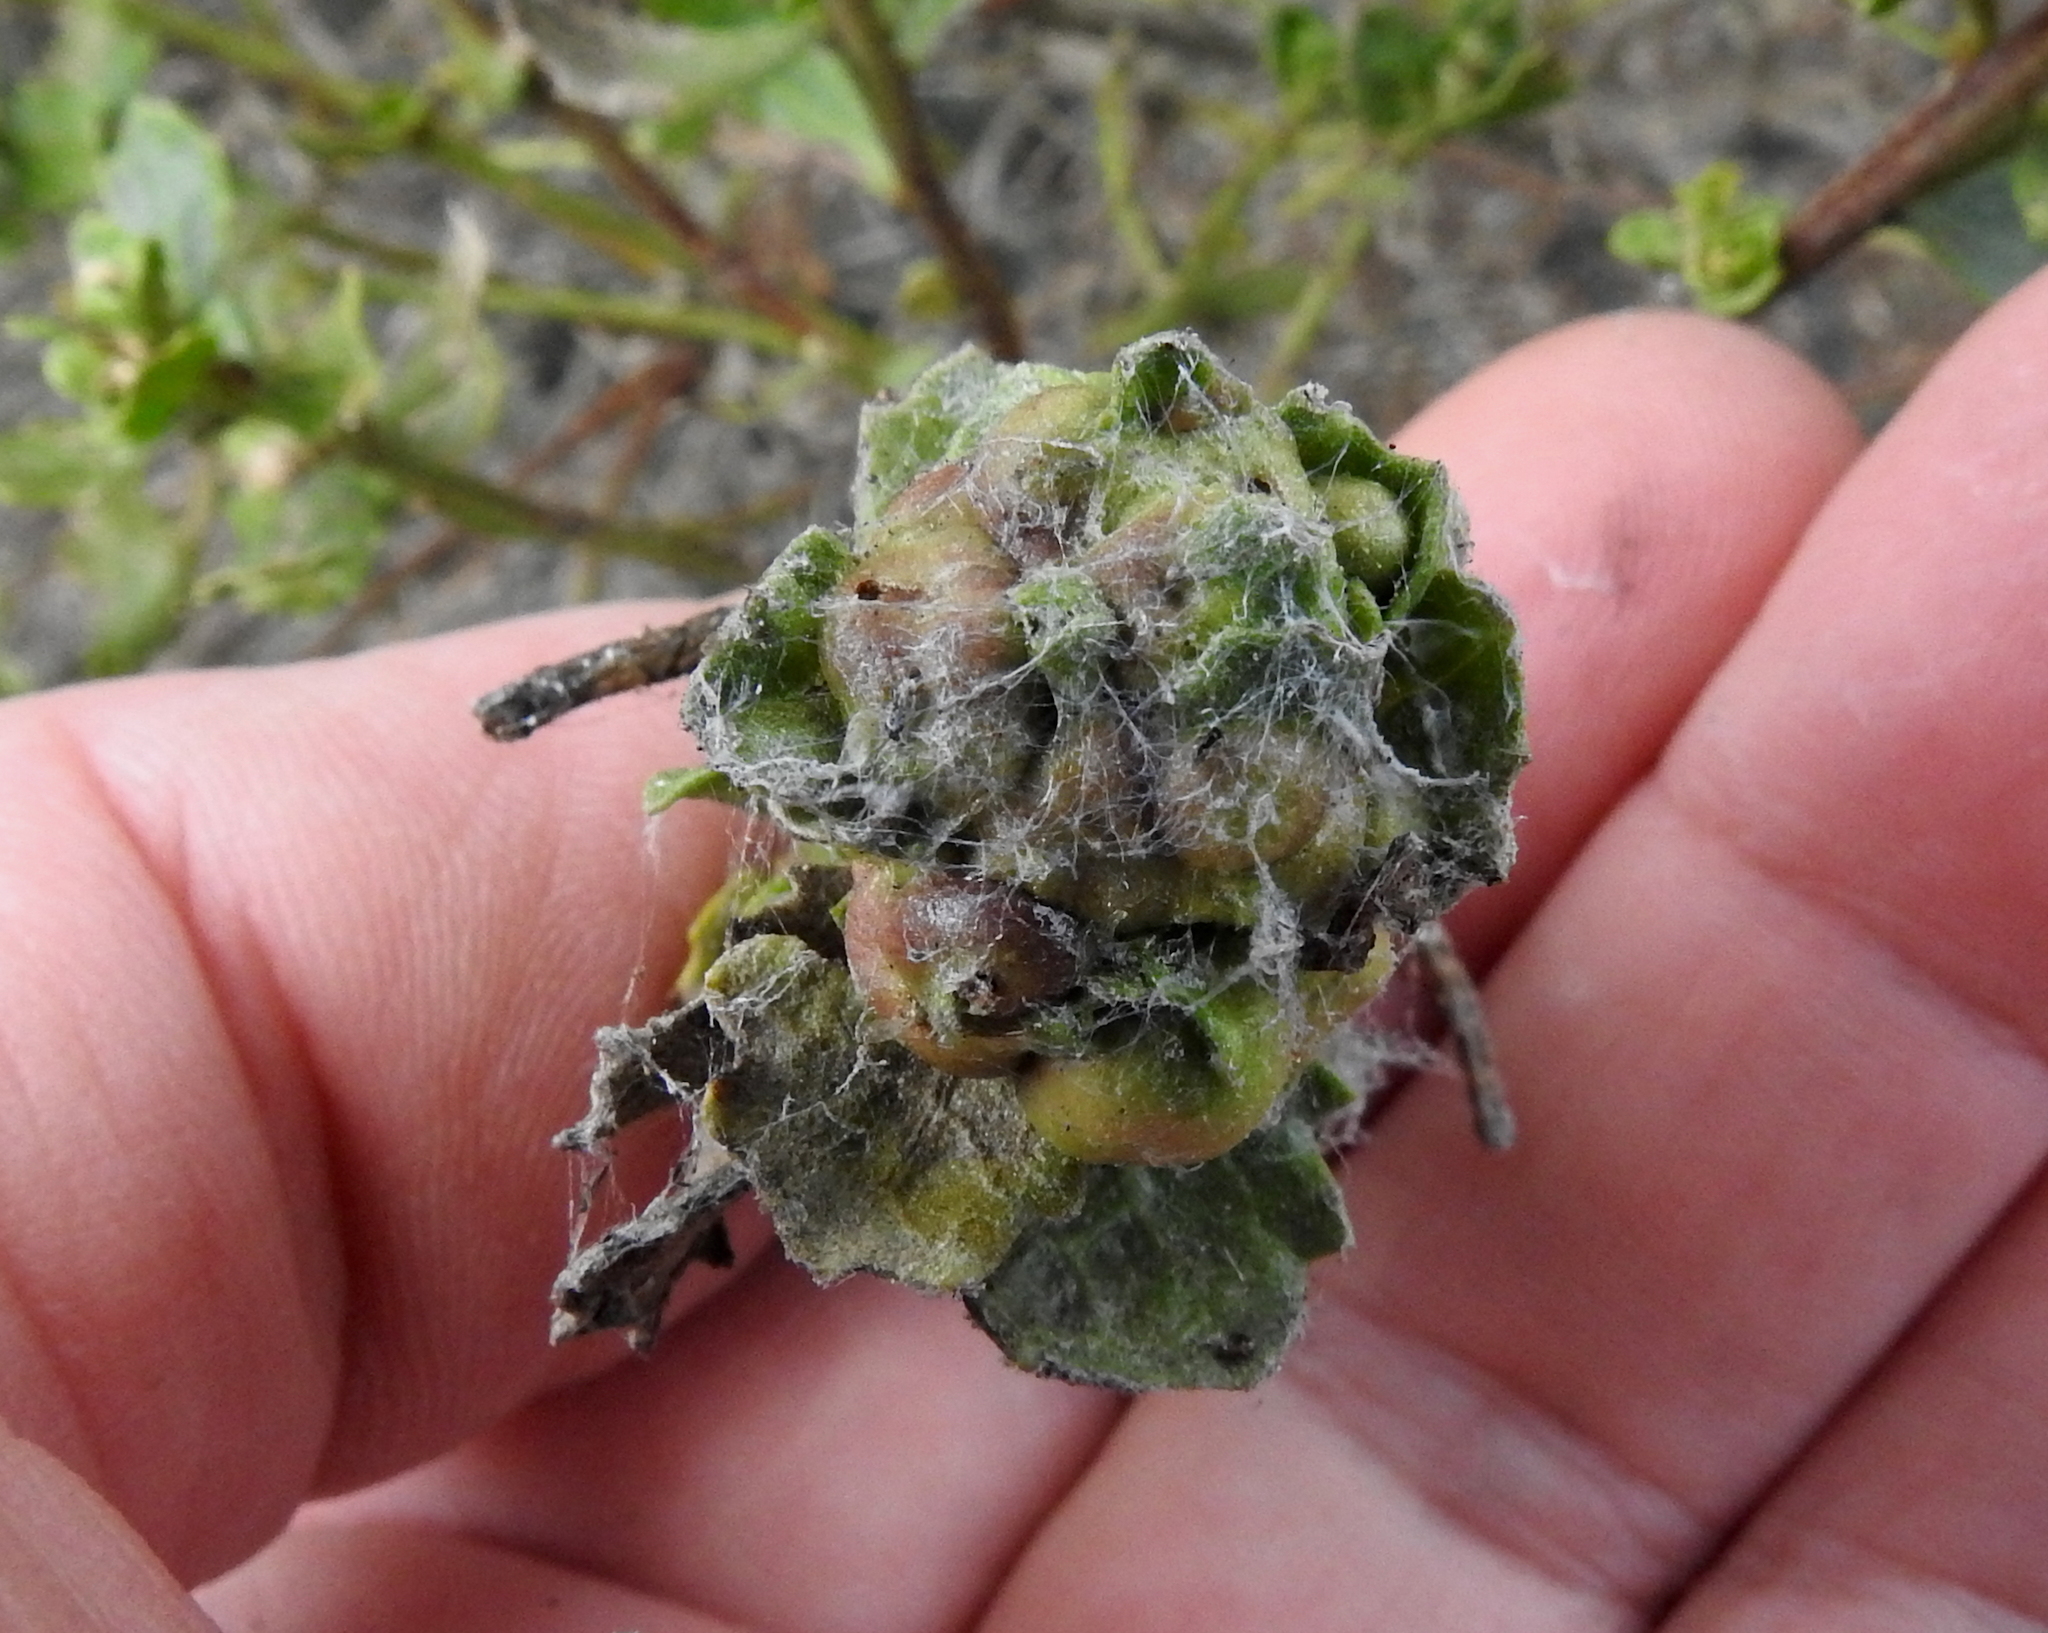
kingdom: Animalia
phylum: Arthropoda
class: Insecta
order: Diptera
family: Cecidomyiidae
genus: Rhopalomyia
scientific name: Rhopalomyia californica
